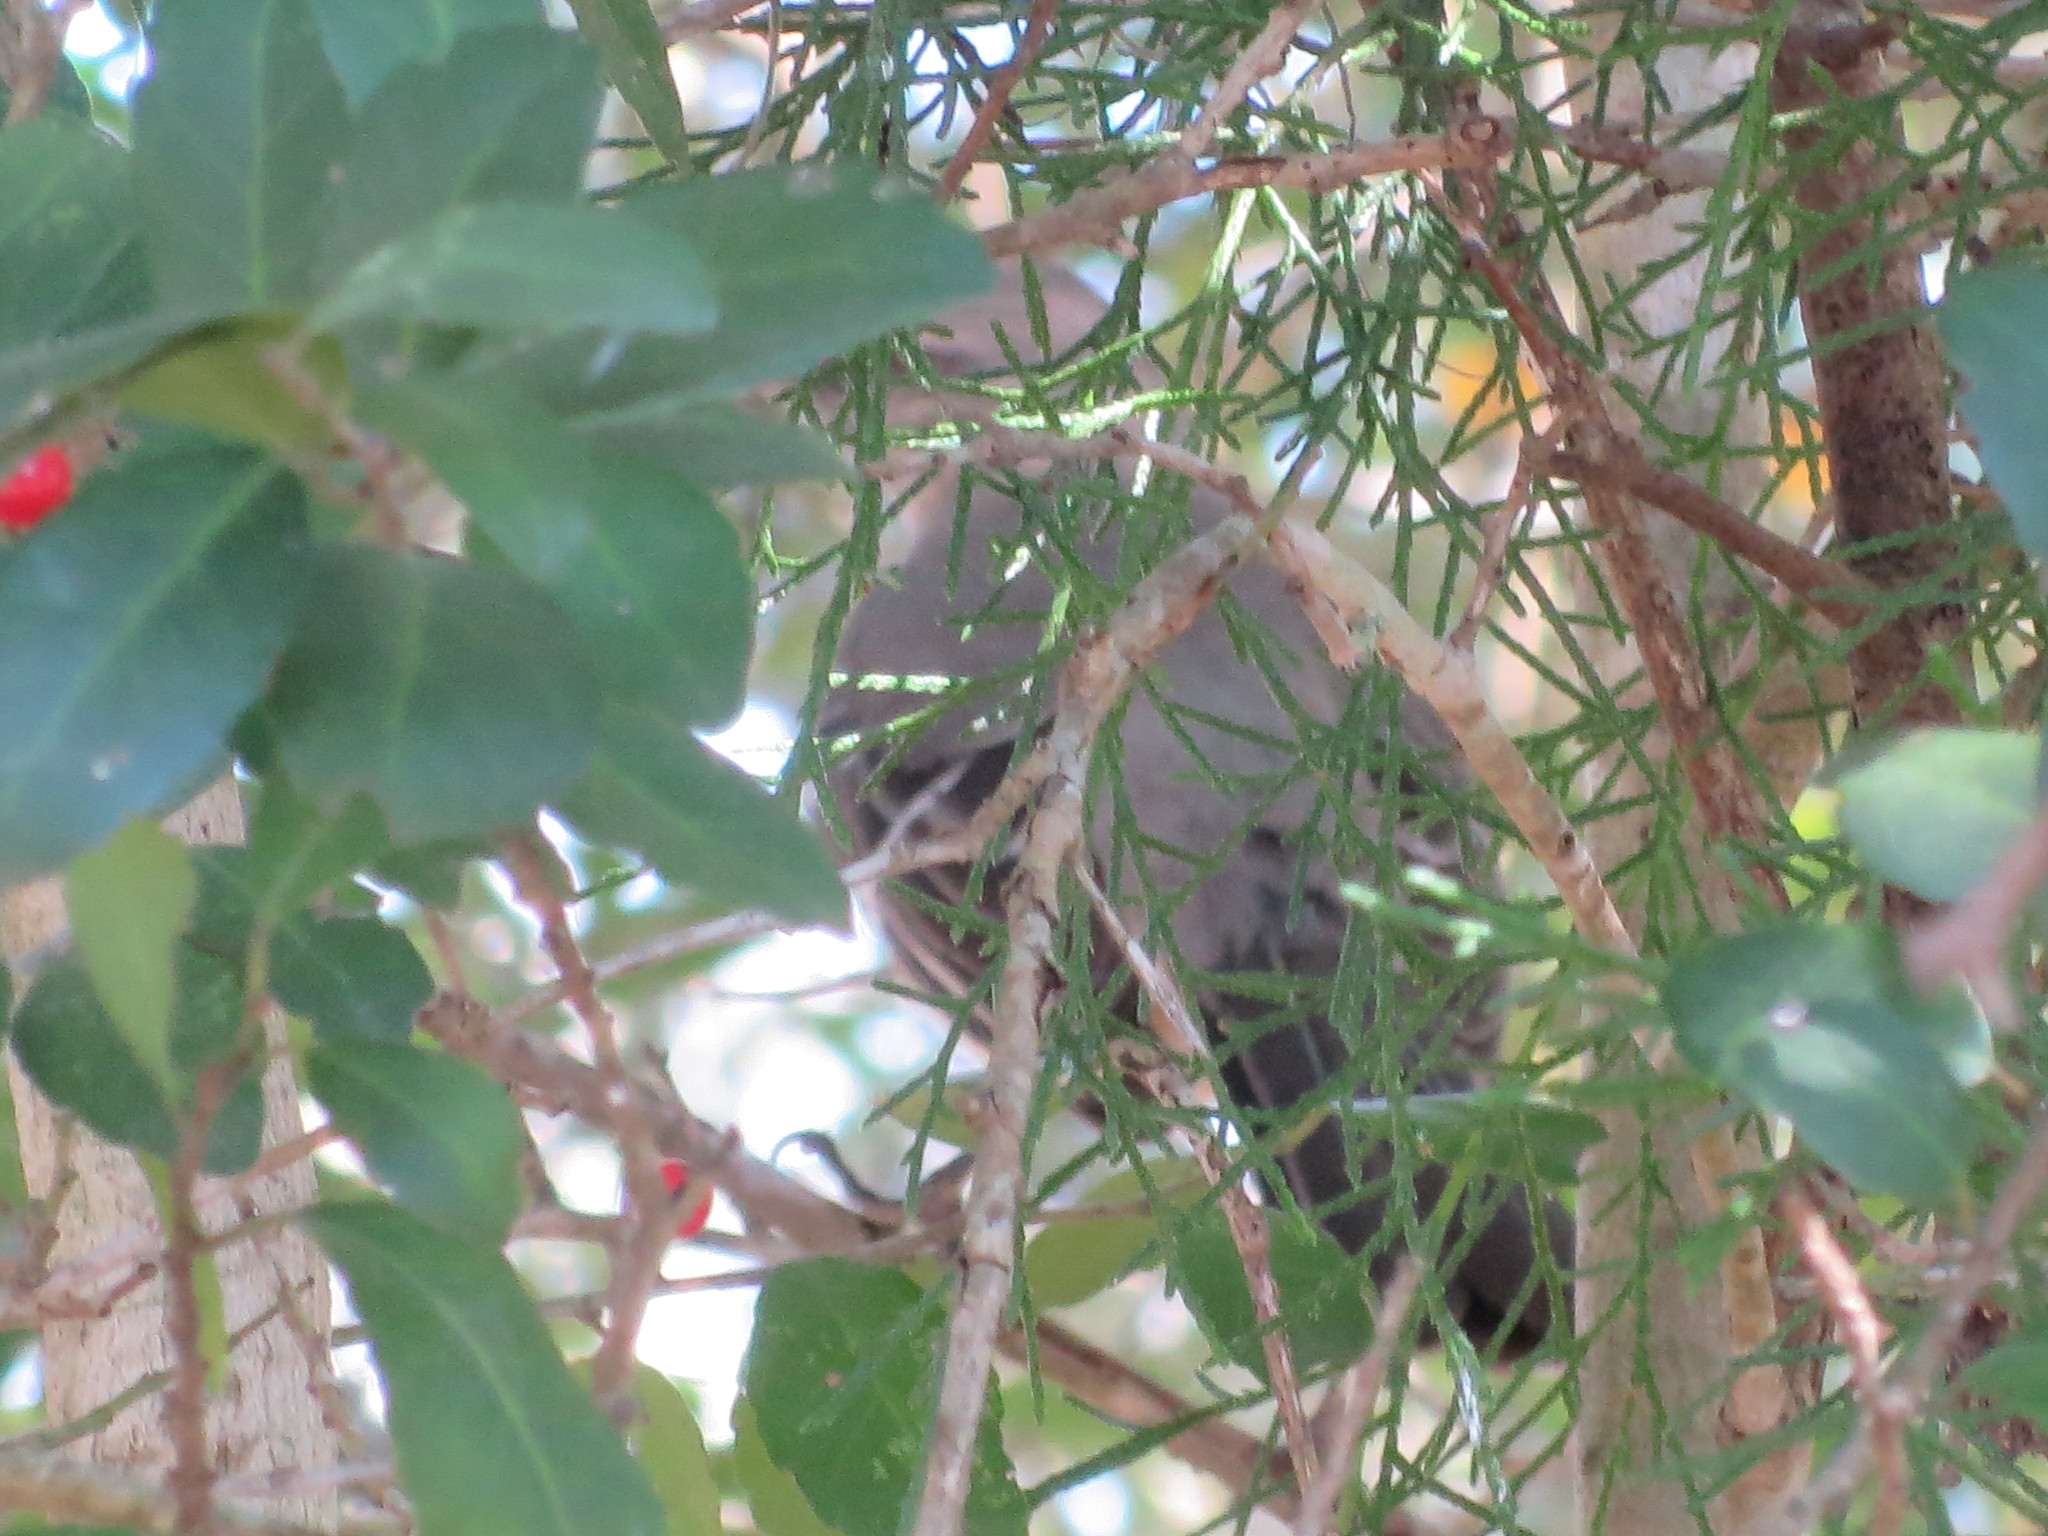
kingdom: Animalia
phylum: Chordata
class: Aves
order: Passeriformes
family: Mimidae
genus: Mimus
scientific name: Mimus polyglottos
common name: Northern mockingbird
